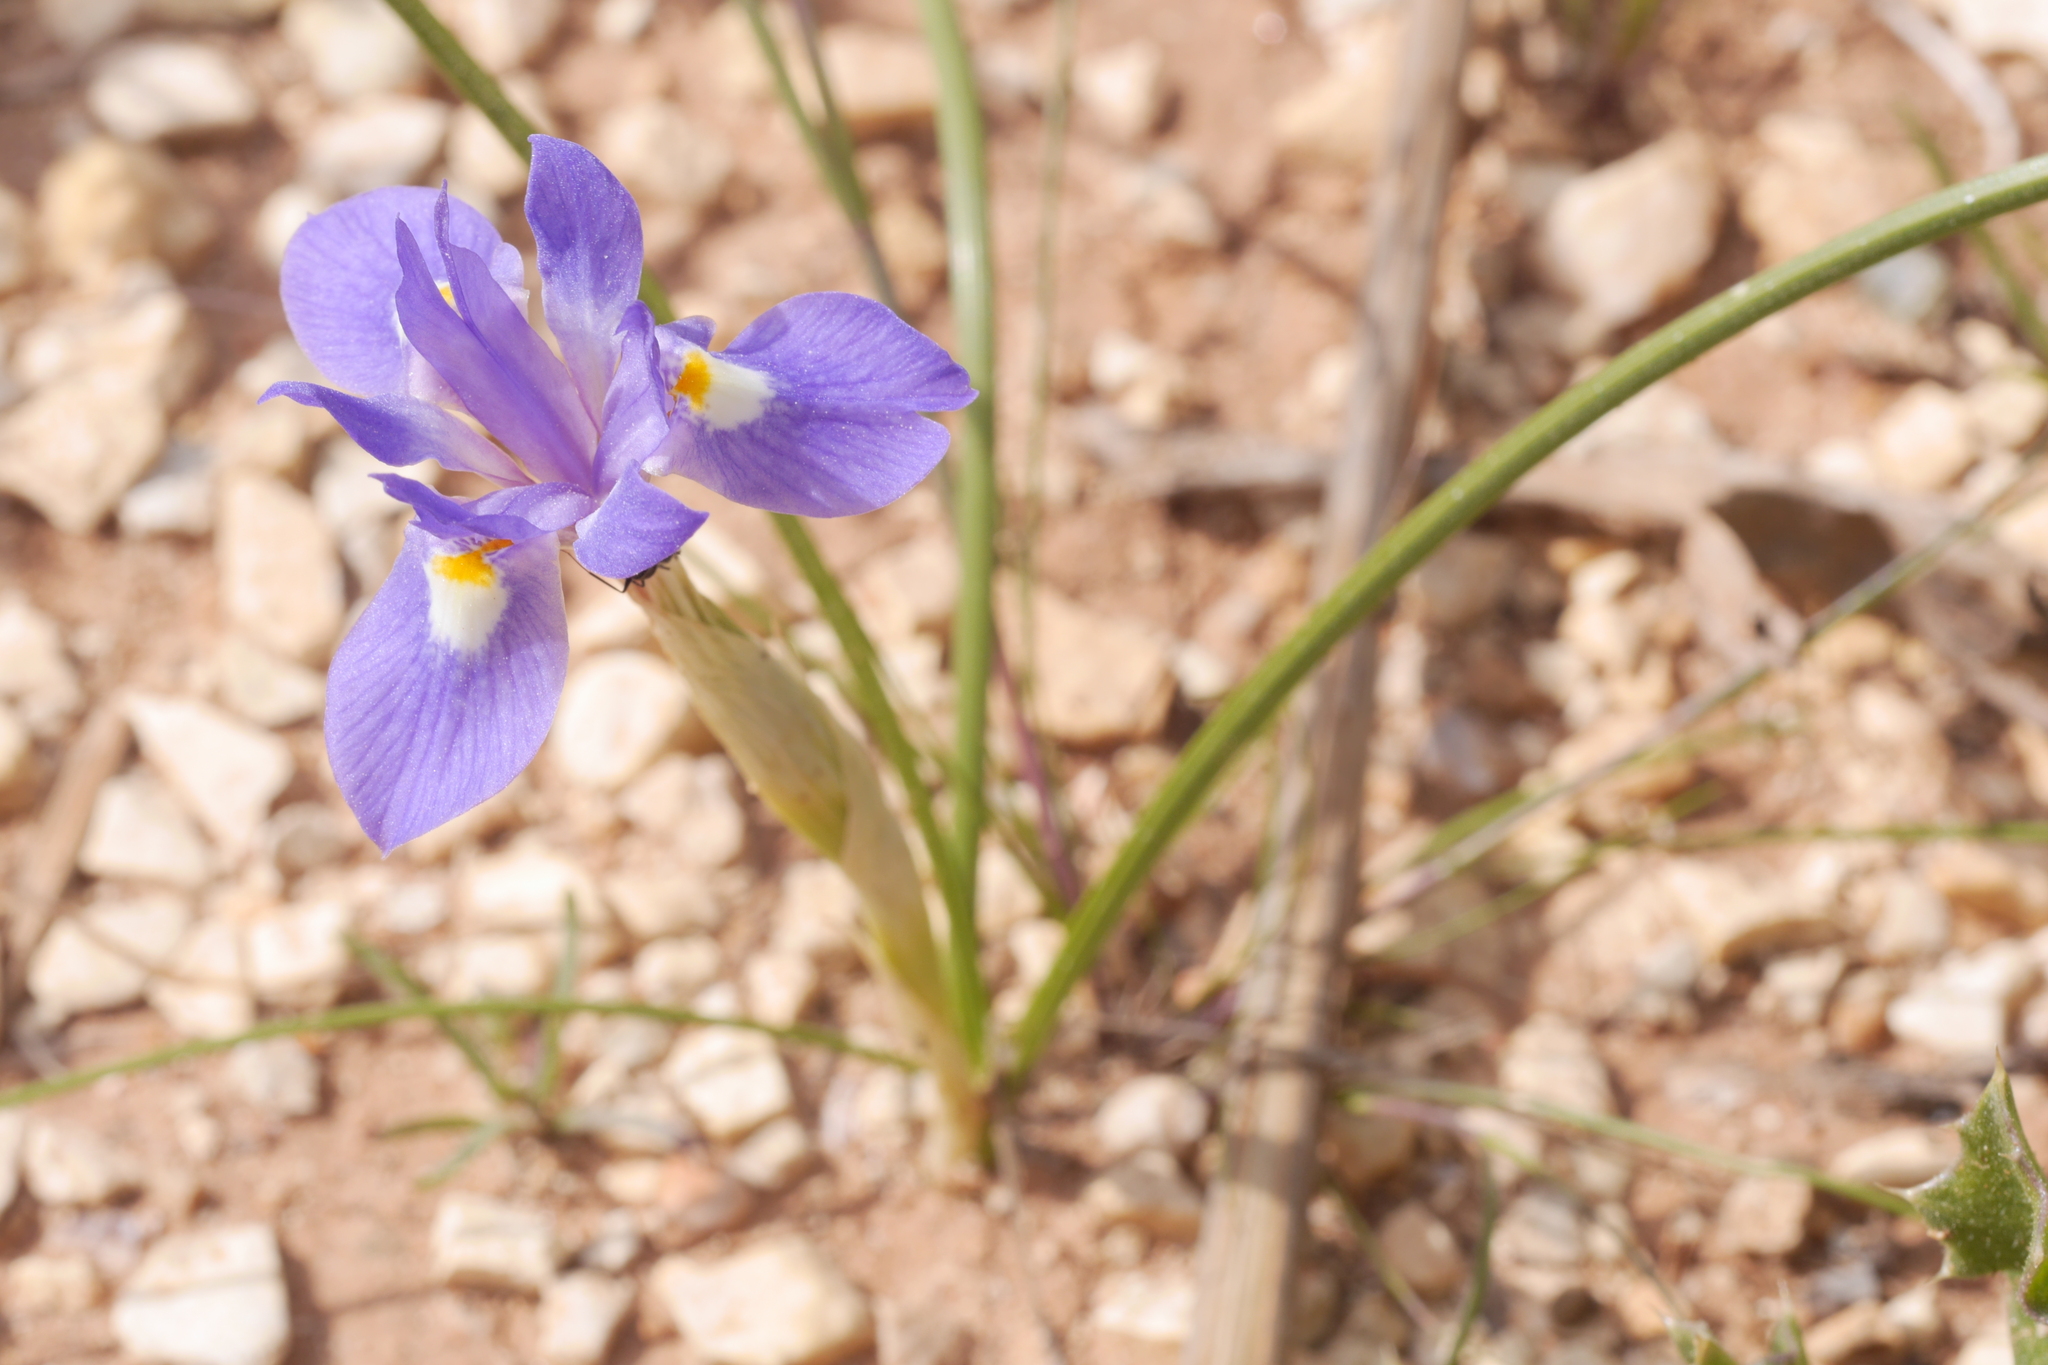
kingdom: Plantae
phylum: Tracheophyta
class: Liliopsida
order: Asparagales
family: Iridaceae
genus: Moraea
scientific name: Moraea sisyrinchium
